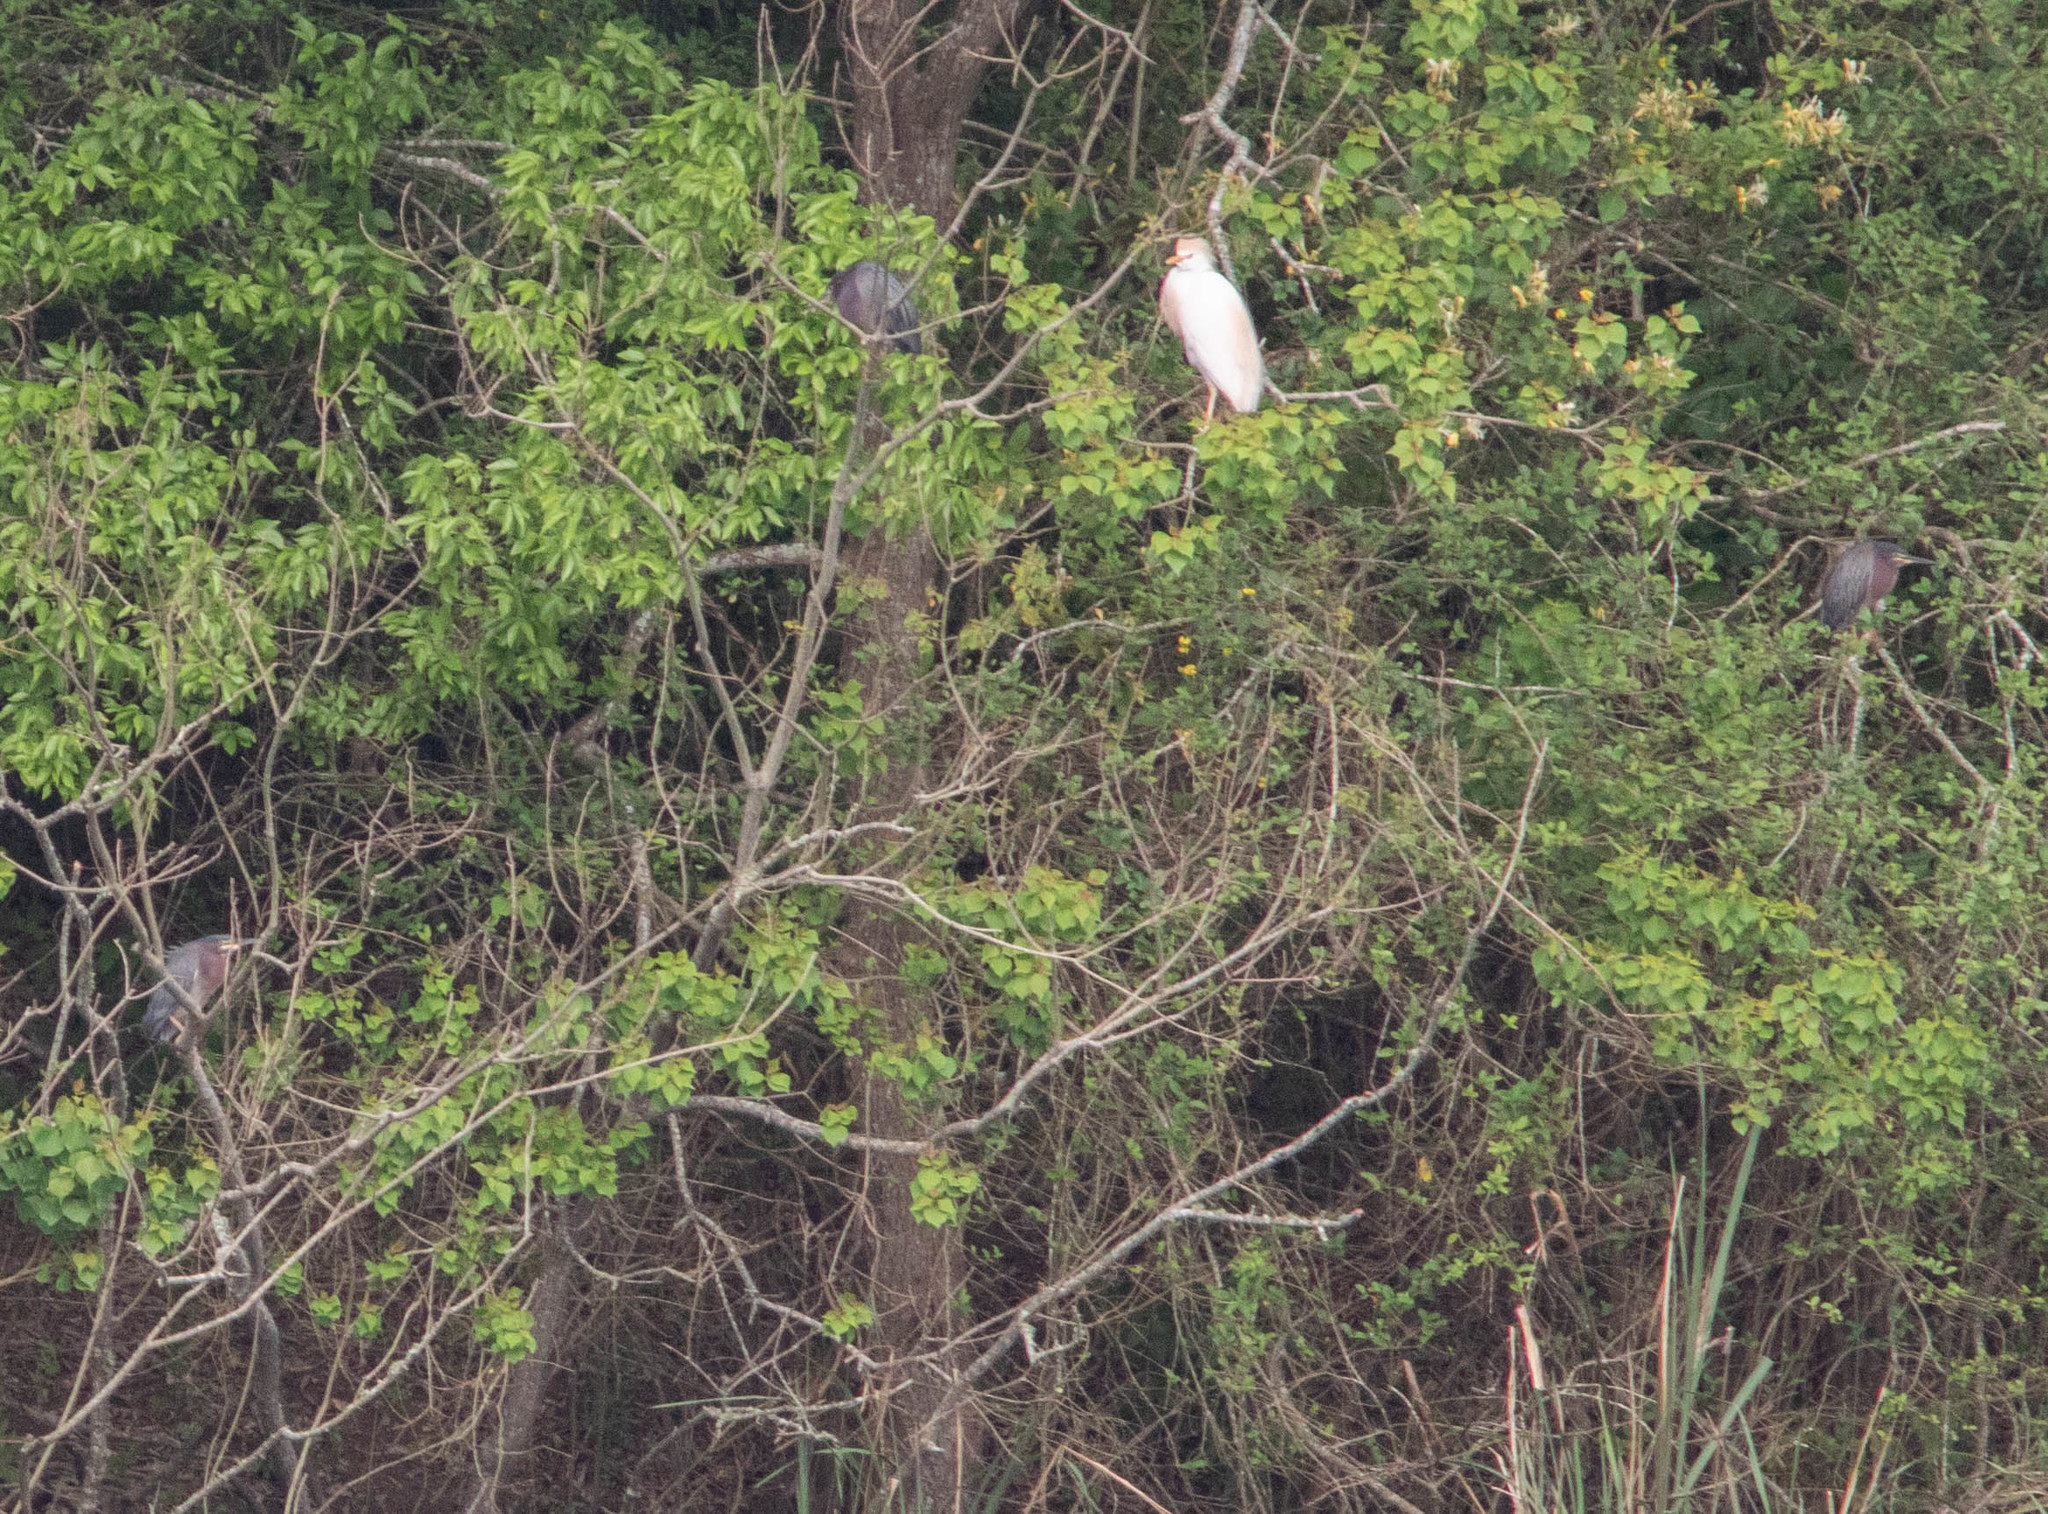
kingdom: Animalia
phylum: Chordata
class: Aves
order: Pelecaniformes
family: Ardeidae
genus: Butorides
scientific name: Butorides virescens
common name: Green heron
